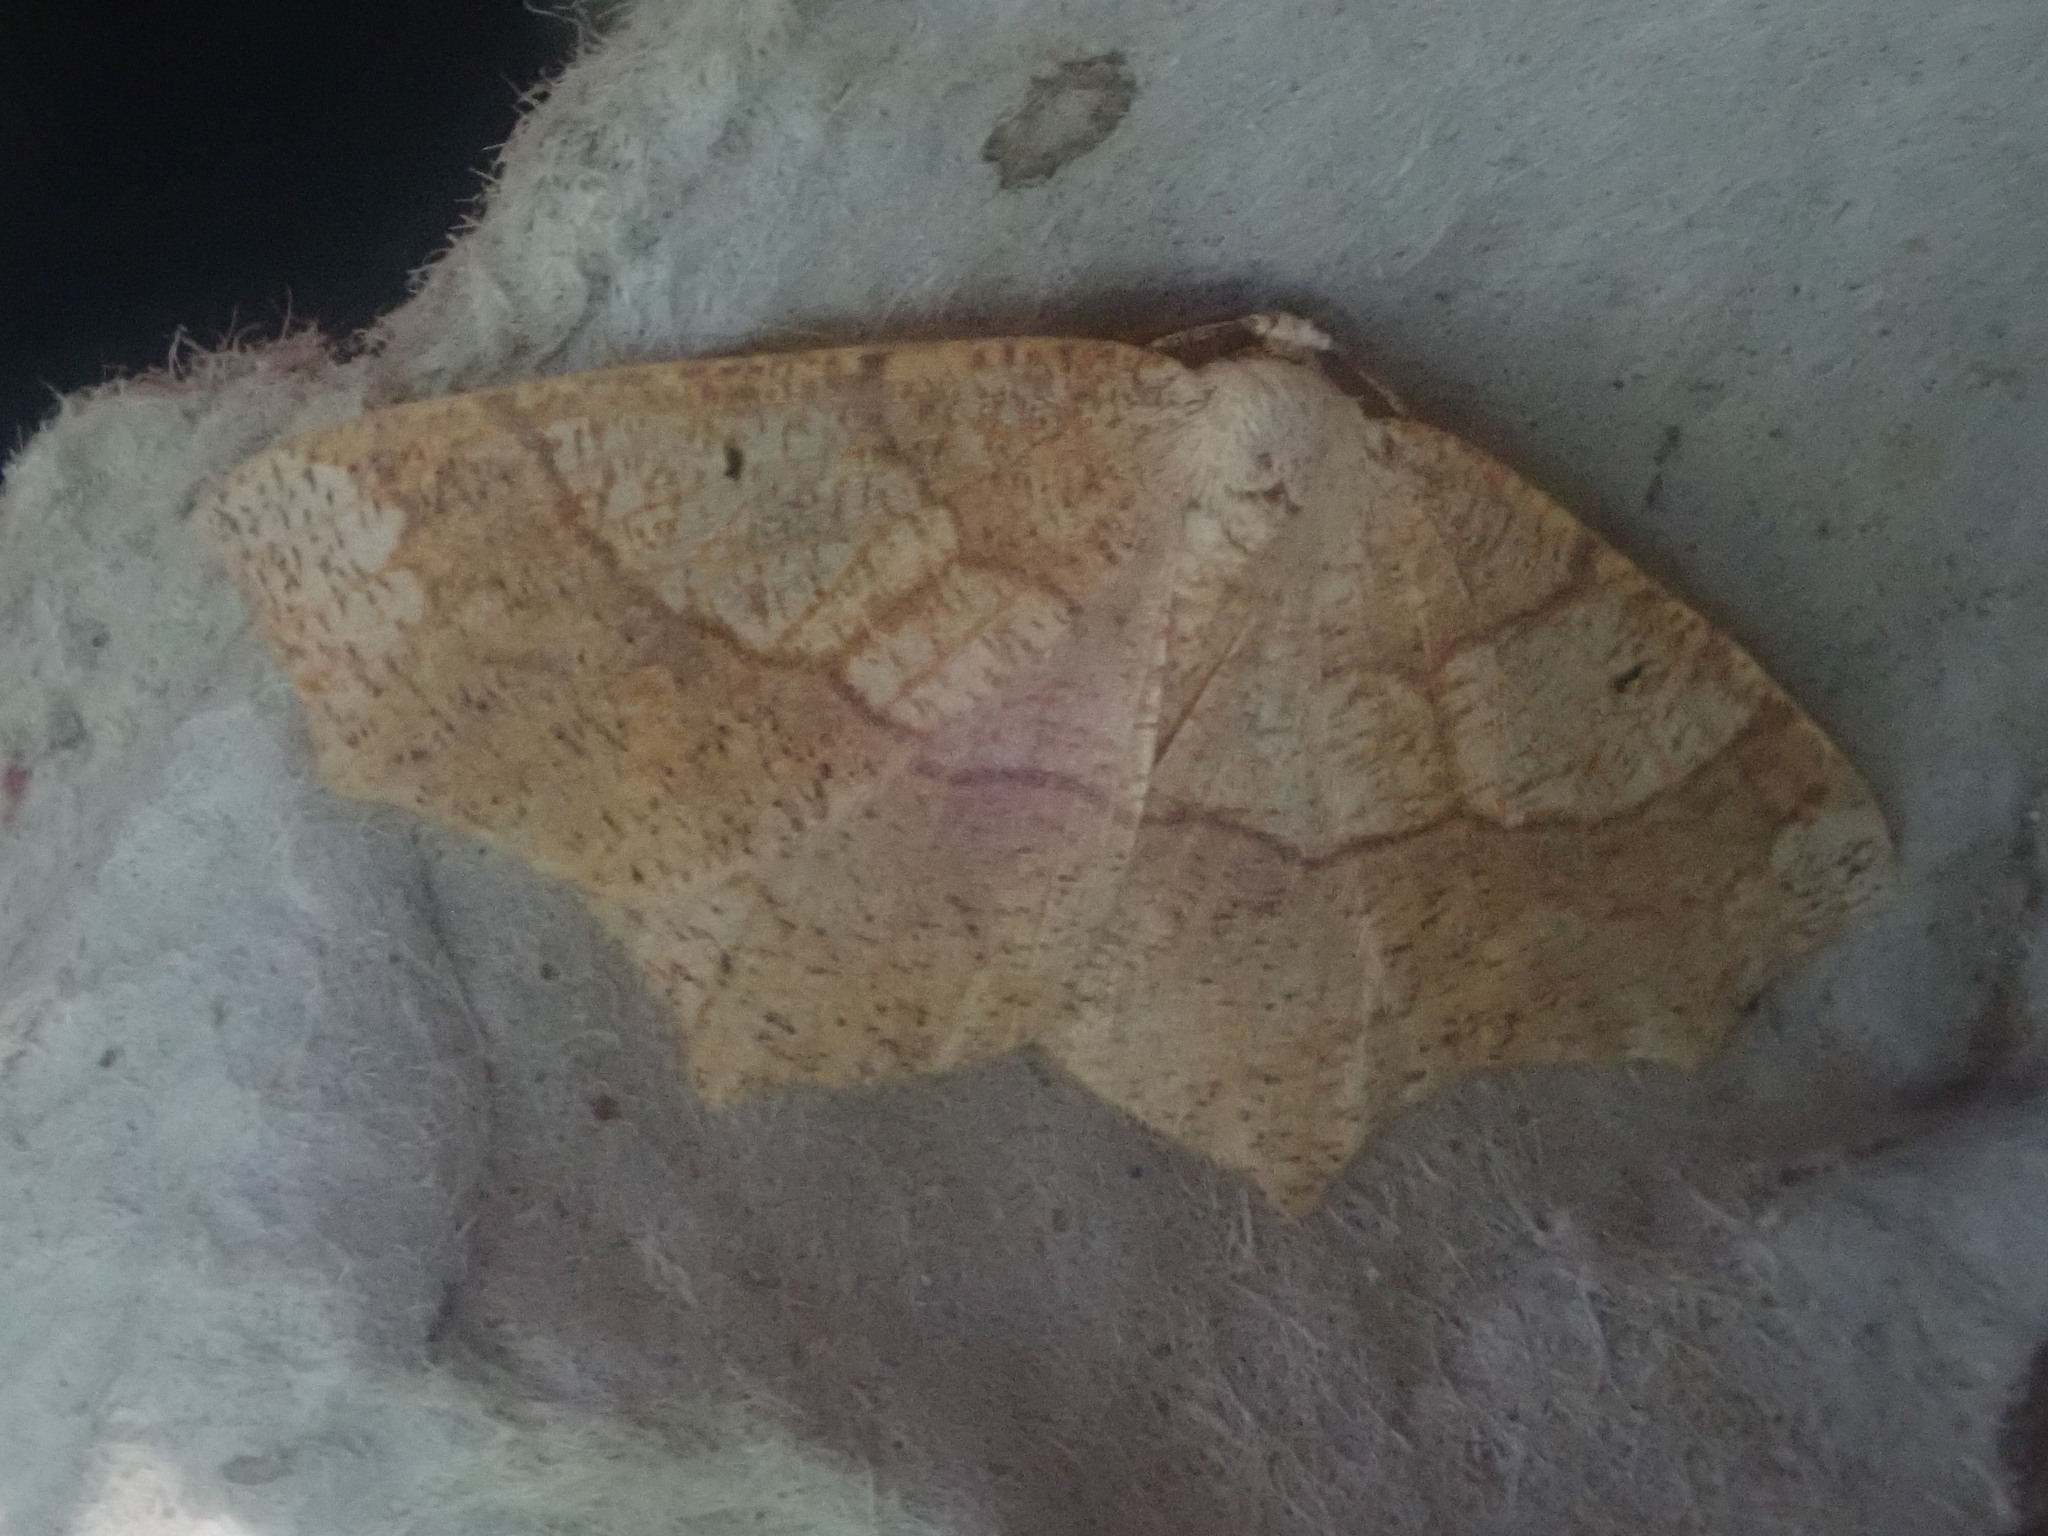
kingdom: Animalia
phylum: Arthropoda
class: Insecta
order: Lepidoptera
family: Geometridae
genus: Besma
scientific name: Besma quercivoraria
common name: Oak besma
